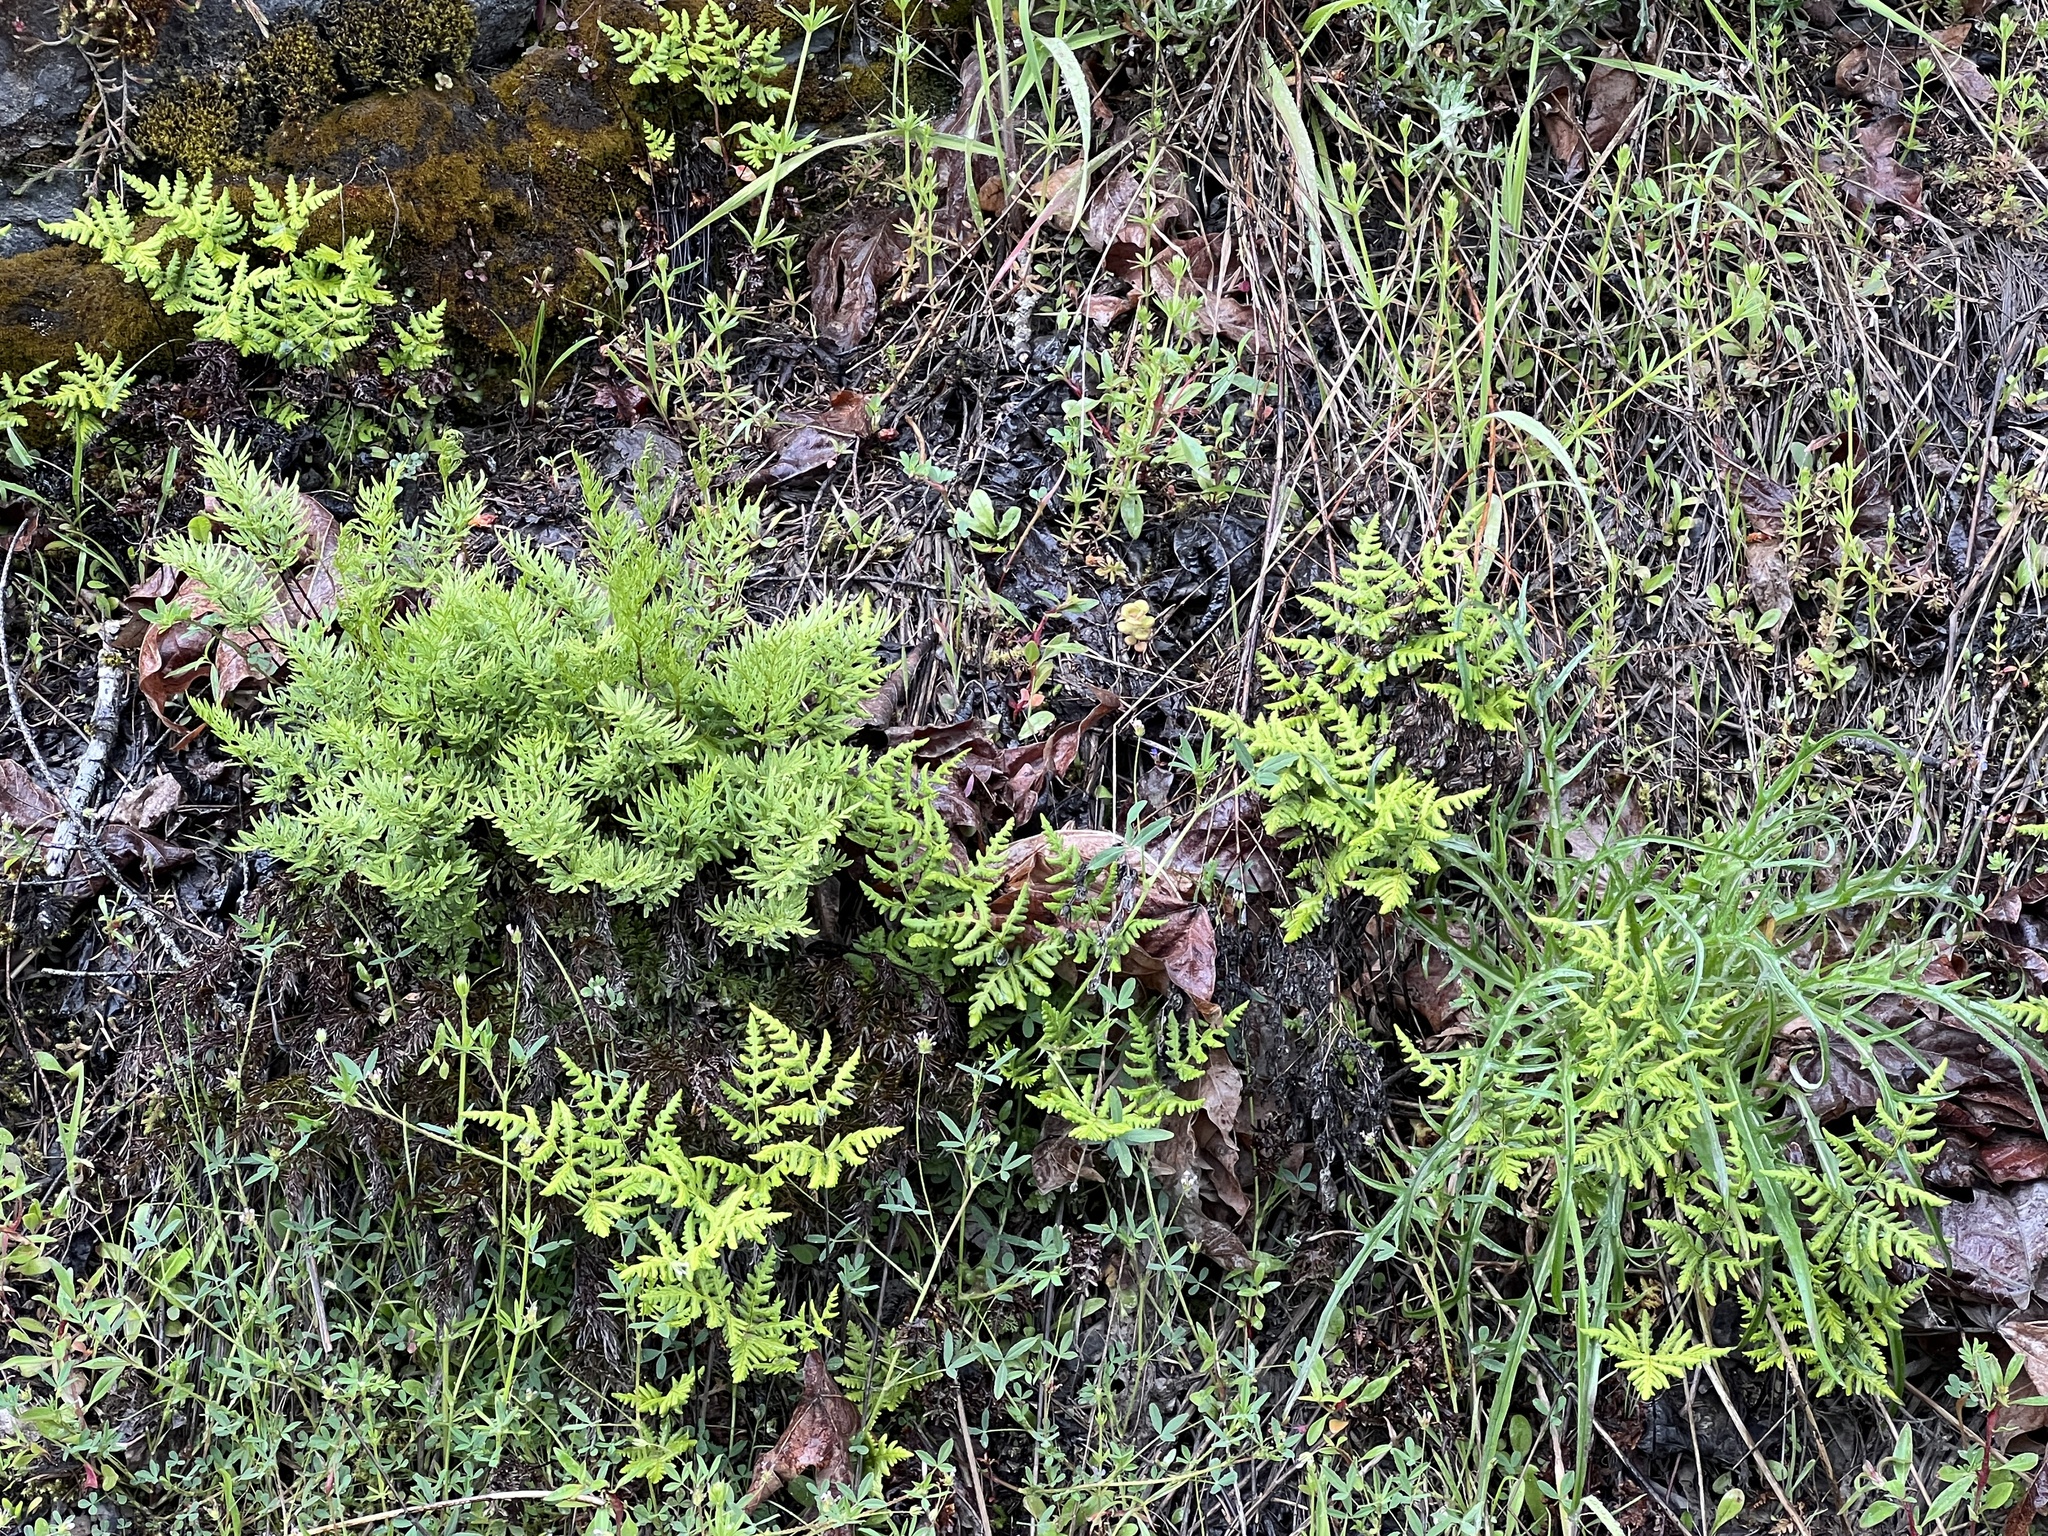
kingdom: Plantae
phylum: Tracheophyta
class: Polypodiopsida
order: Polypodiales
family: Pteridaceae
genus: Aspidotis
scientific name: Aspidotis densa
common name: Indian's dream
